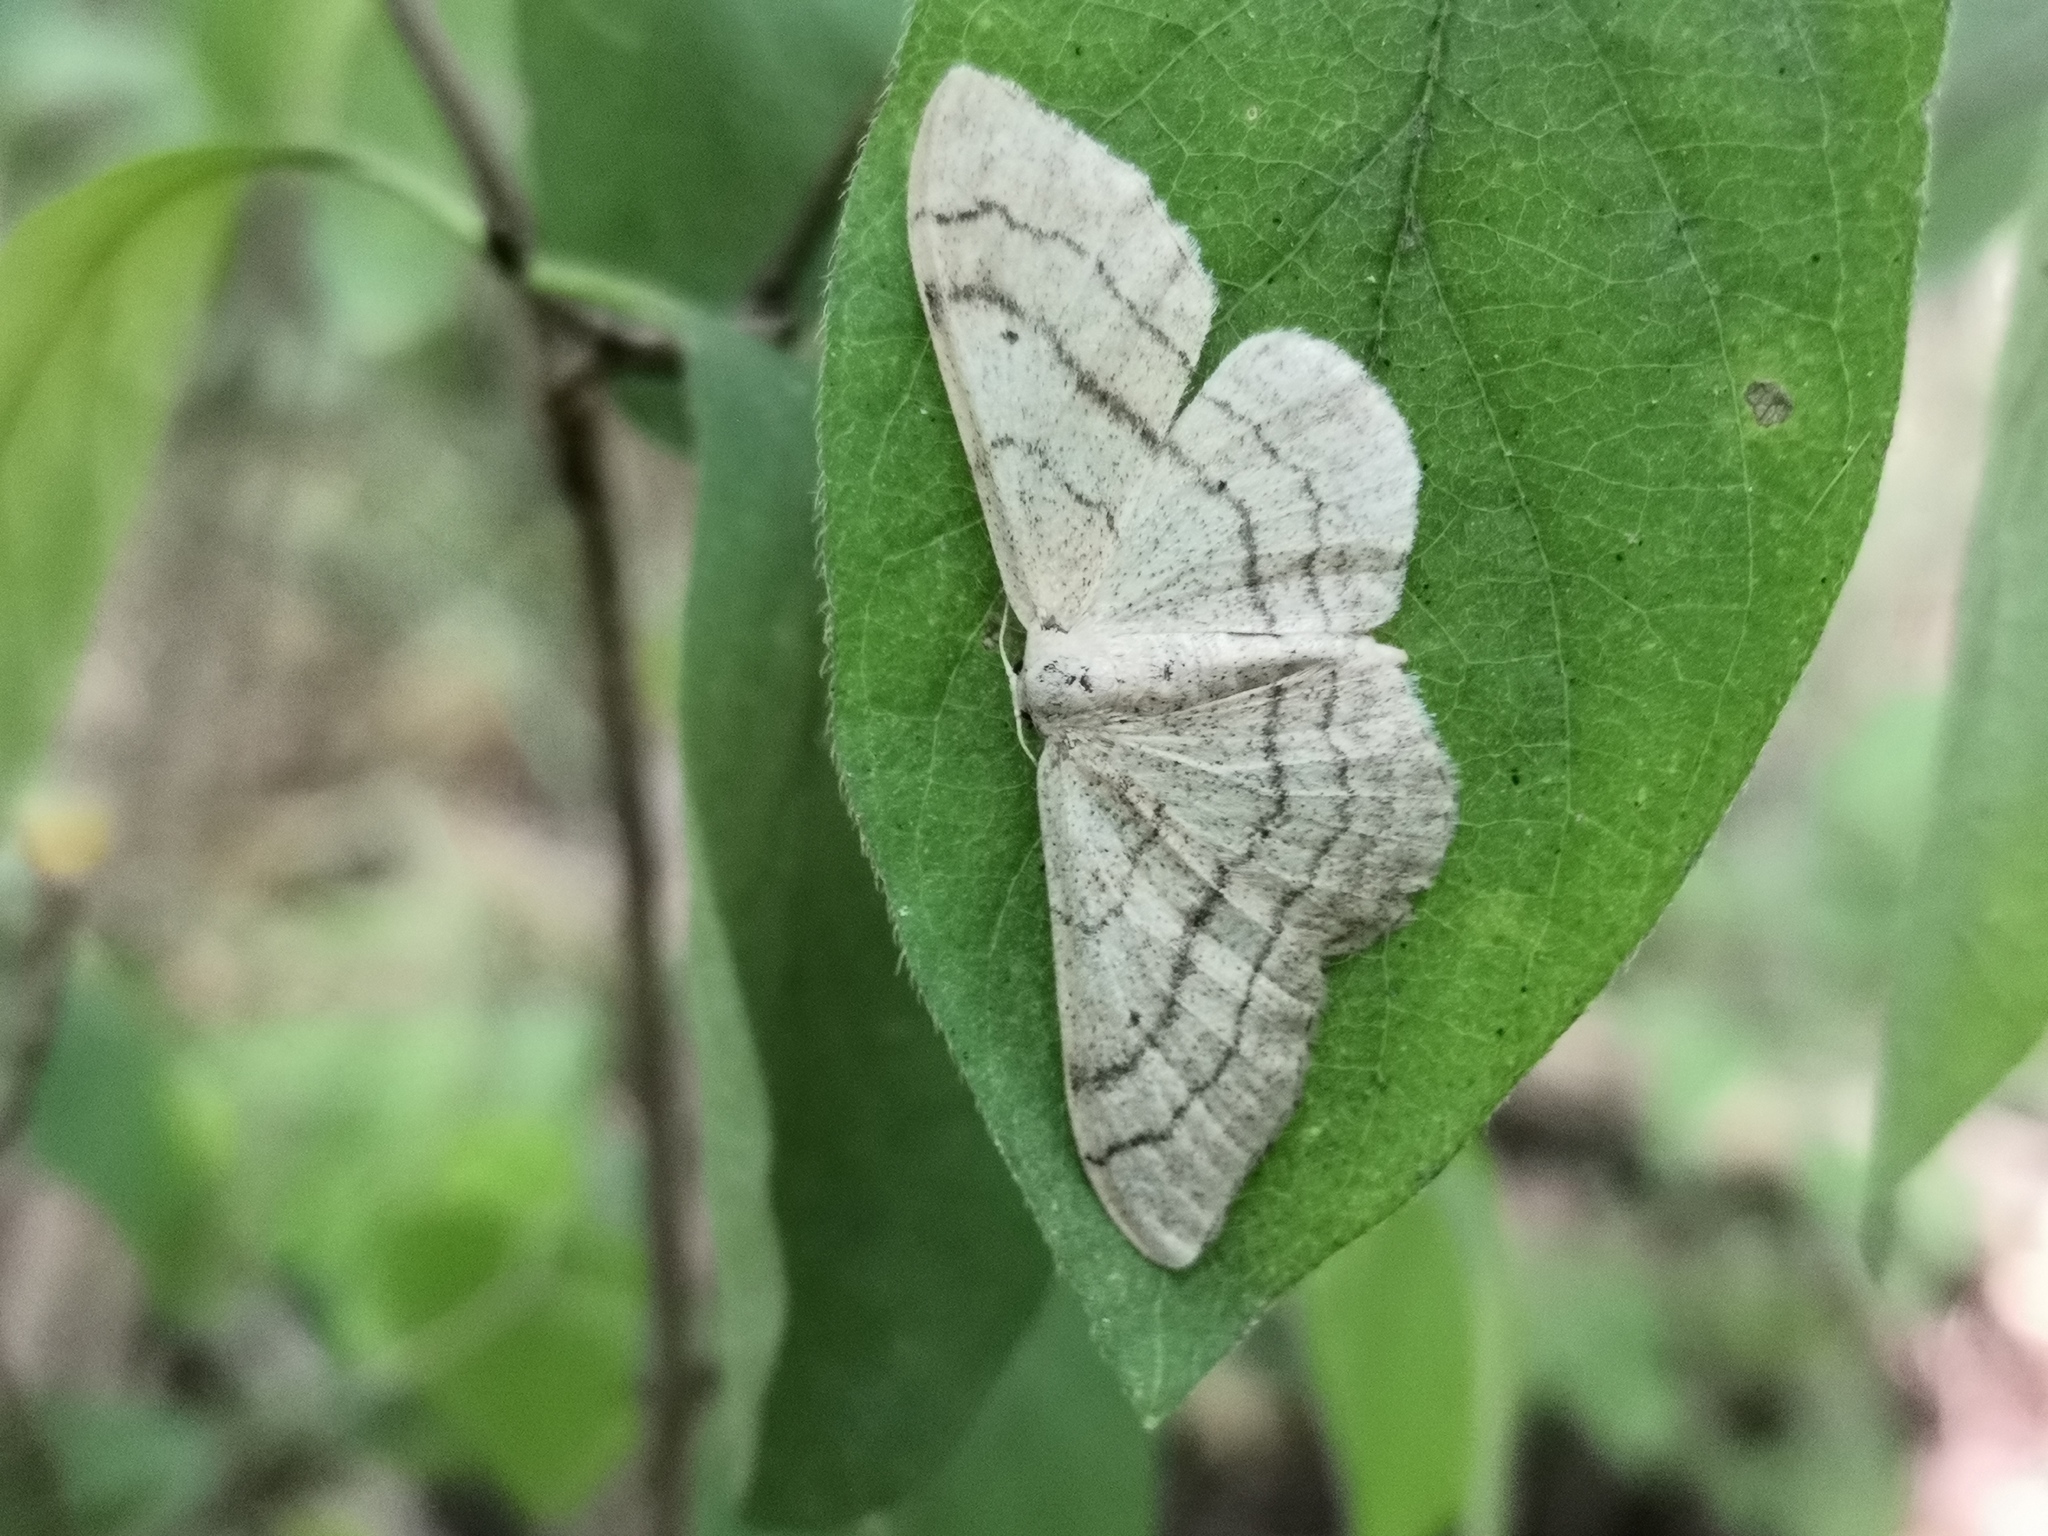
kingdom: Animalia
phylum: Arthropoda
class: Insecta
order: Lepidoptera
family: Geometridae
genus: Idaea
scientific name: Idaea aversata
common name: Riband wave
